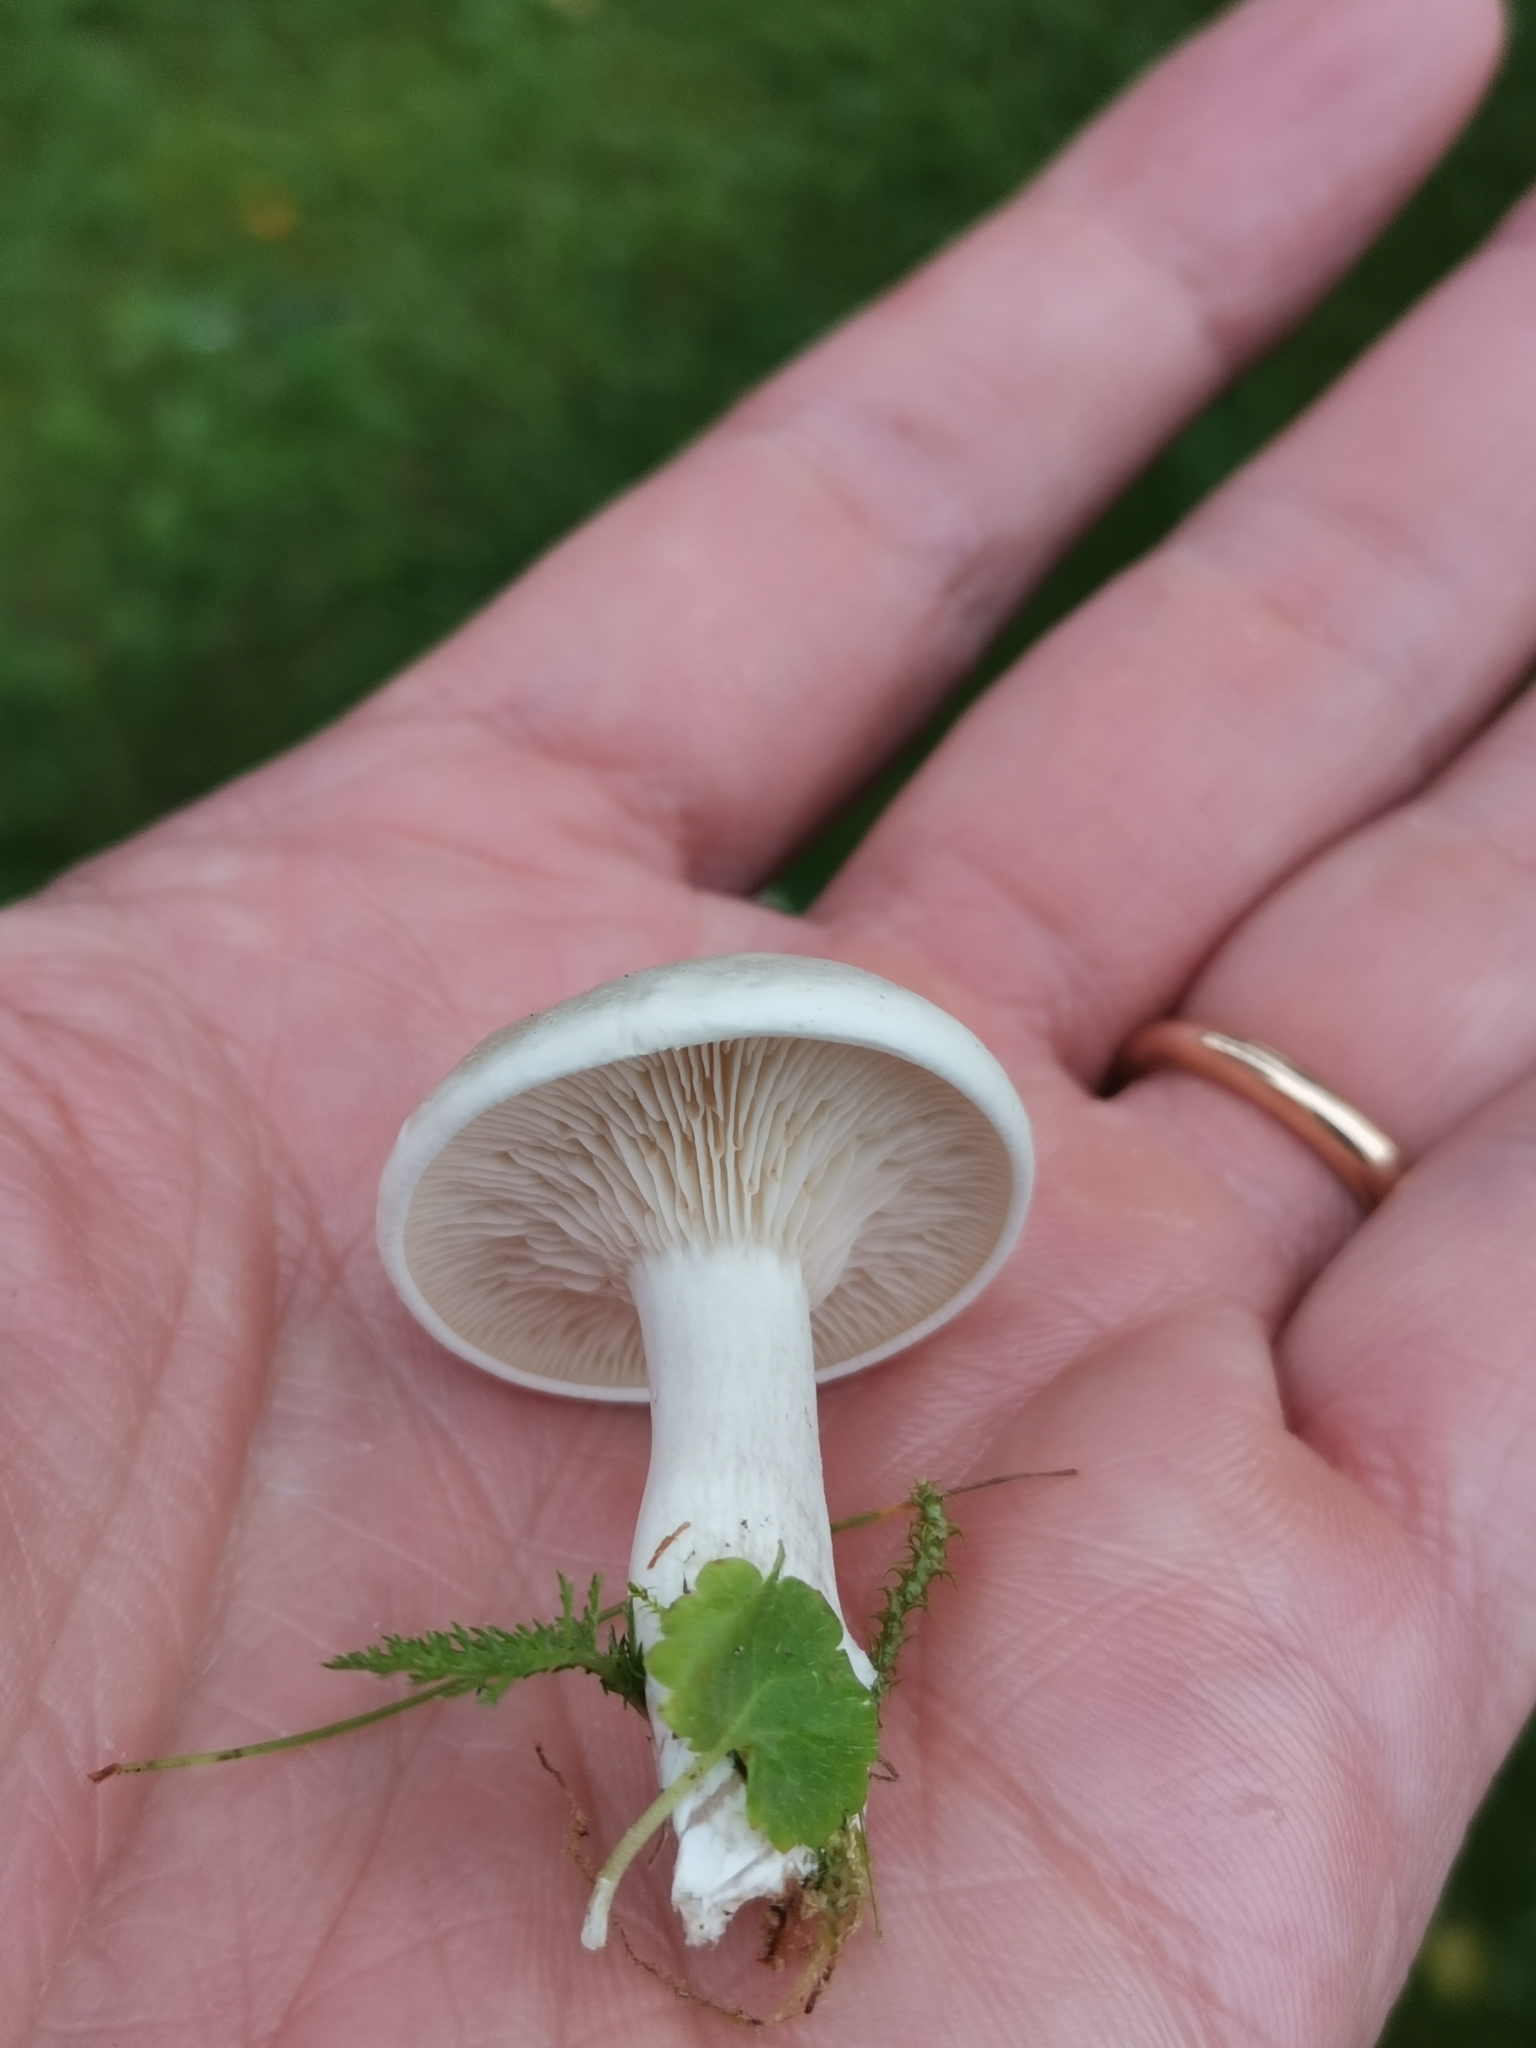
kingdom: Fungi
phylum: Basidiomycota
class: Agaricomycetes
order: Agaricales
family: Entolomataceae
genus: Clitopilus
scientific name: Clitopilus prunulus
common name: The miller
